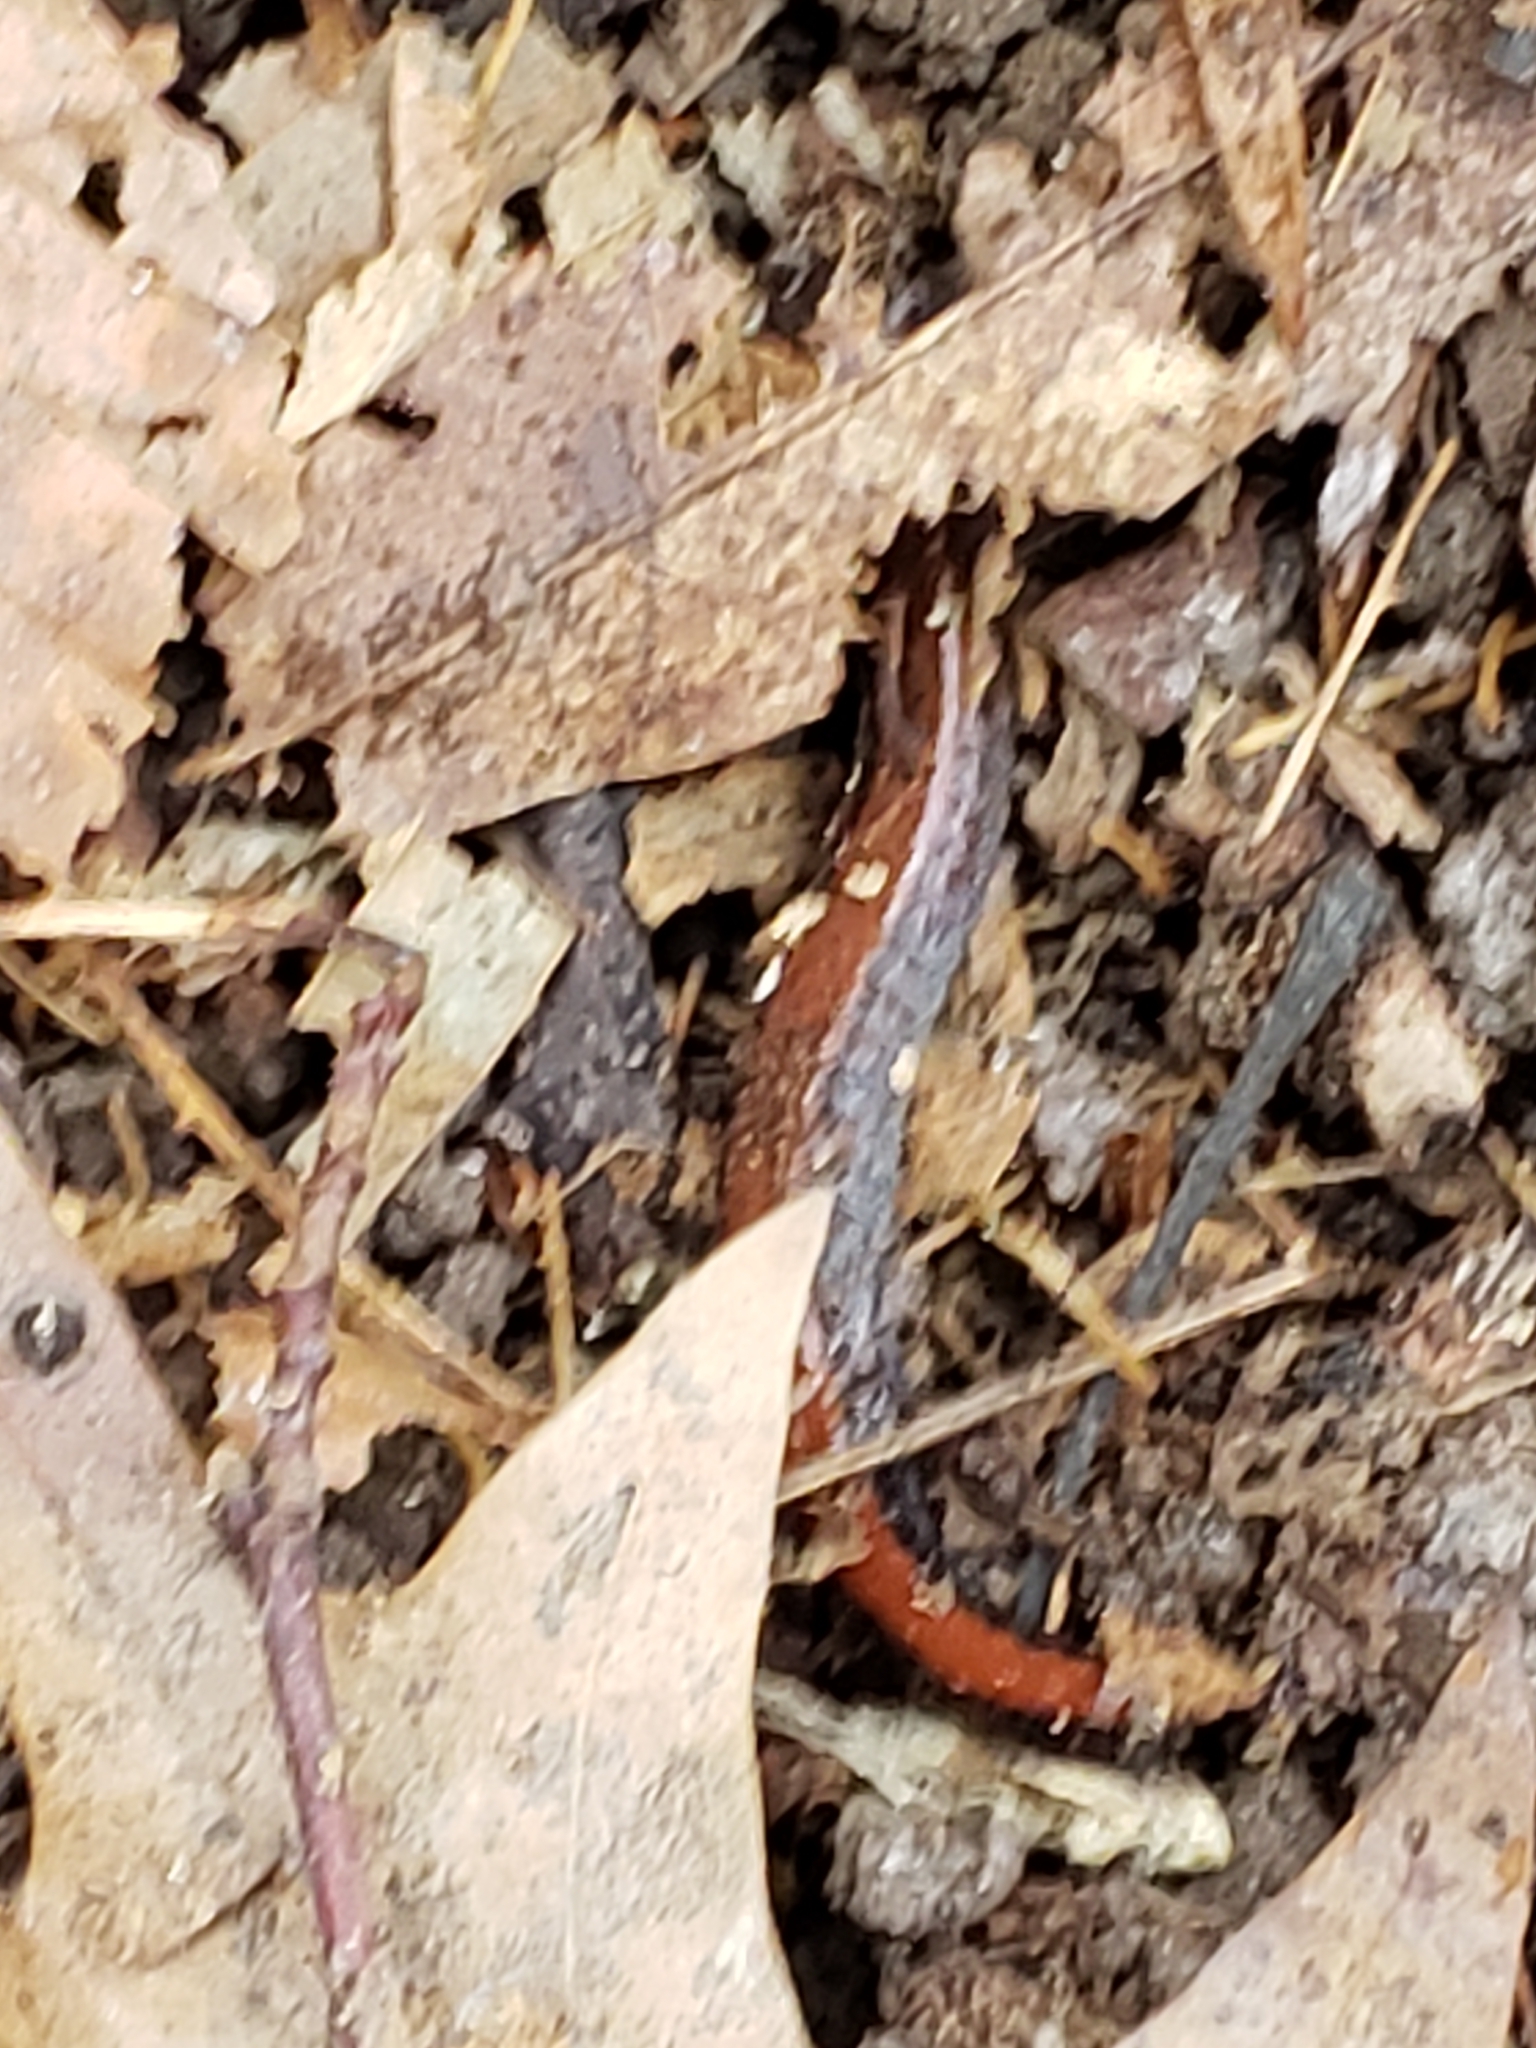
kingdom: Animalia
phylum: Chordata
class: Amphibia
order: Caudata
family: Plethodontidae
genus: Plethodon
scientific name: Plethodon cinereus
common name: Redback salamander
